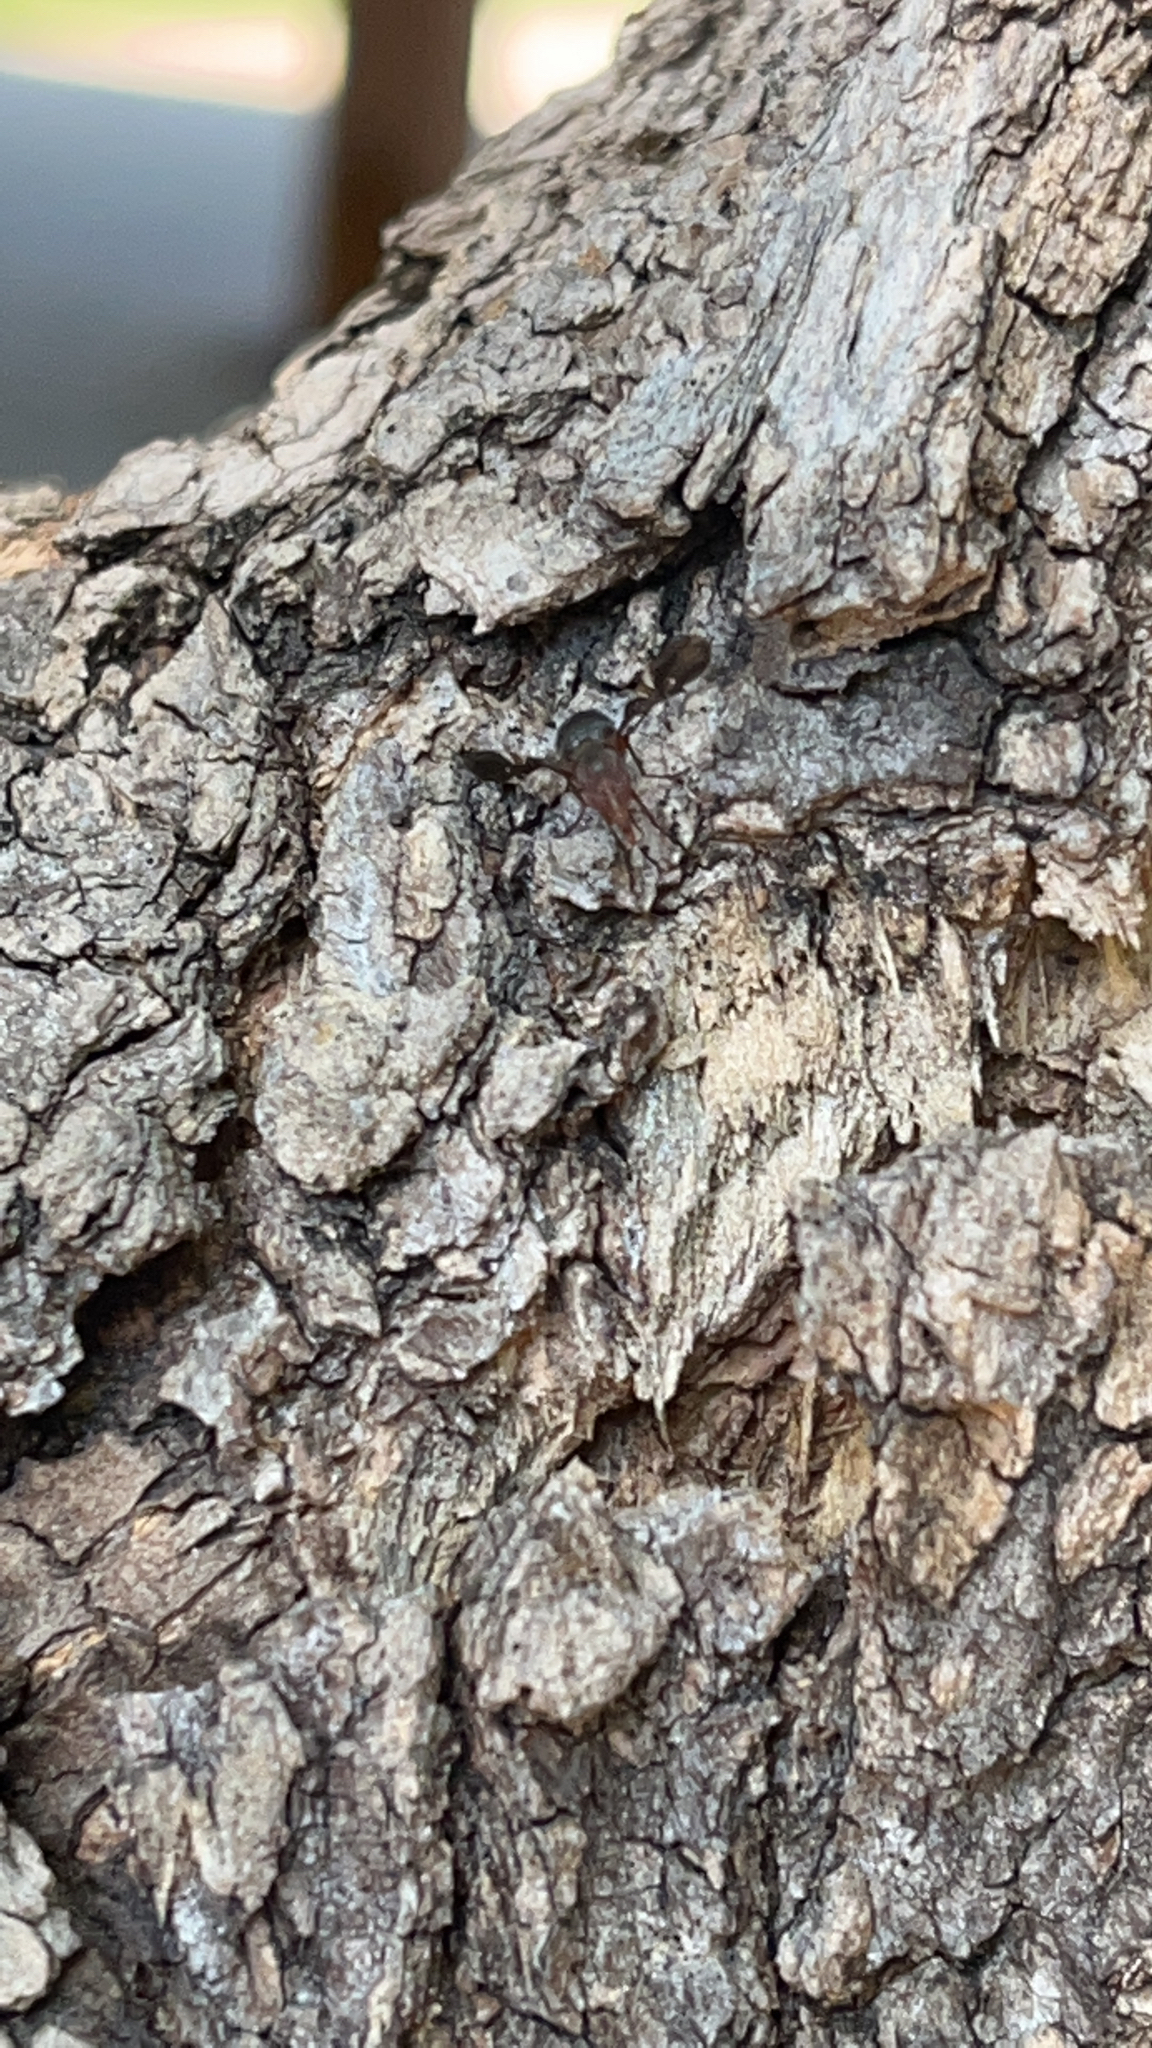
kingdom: Animalia
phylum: Arthropoda
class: Insecta
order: Diptera
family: Ulidiidae
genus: Delphinia
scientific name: Delphinia picta
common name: Common picture-winged fly
